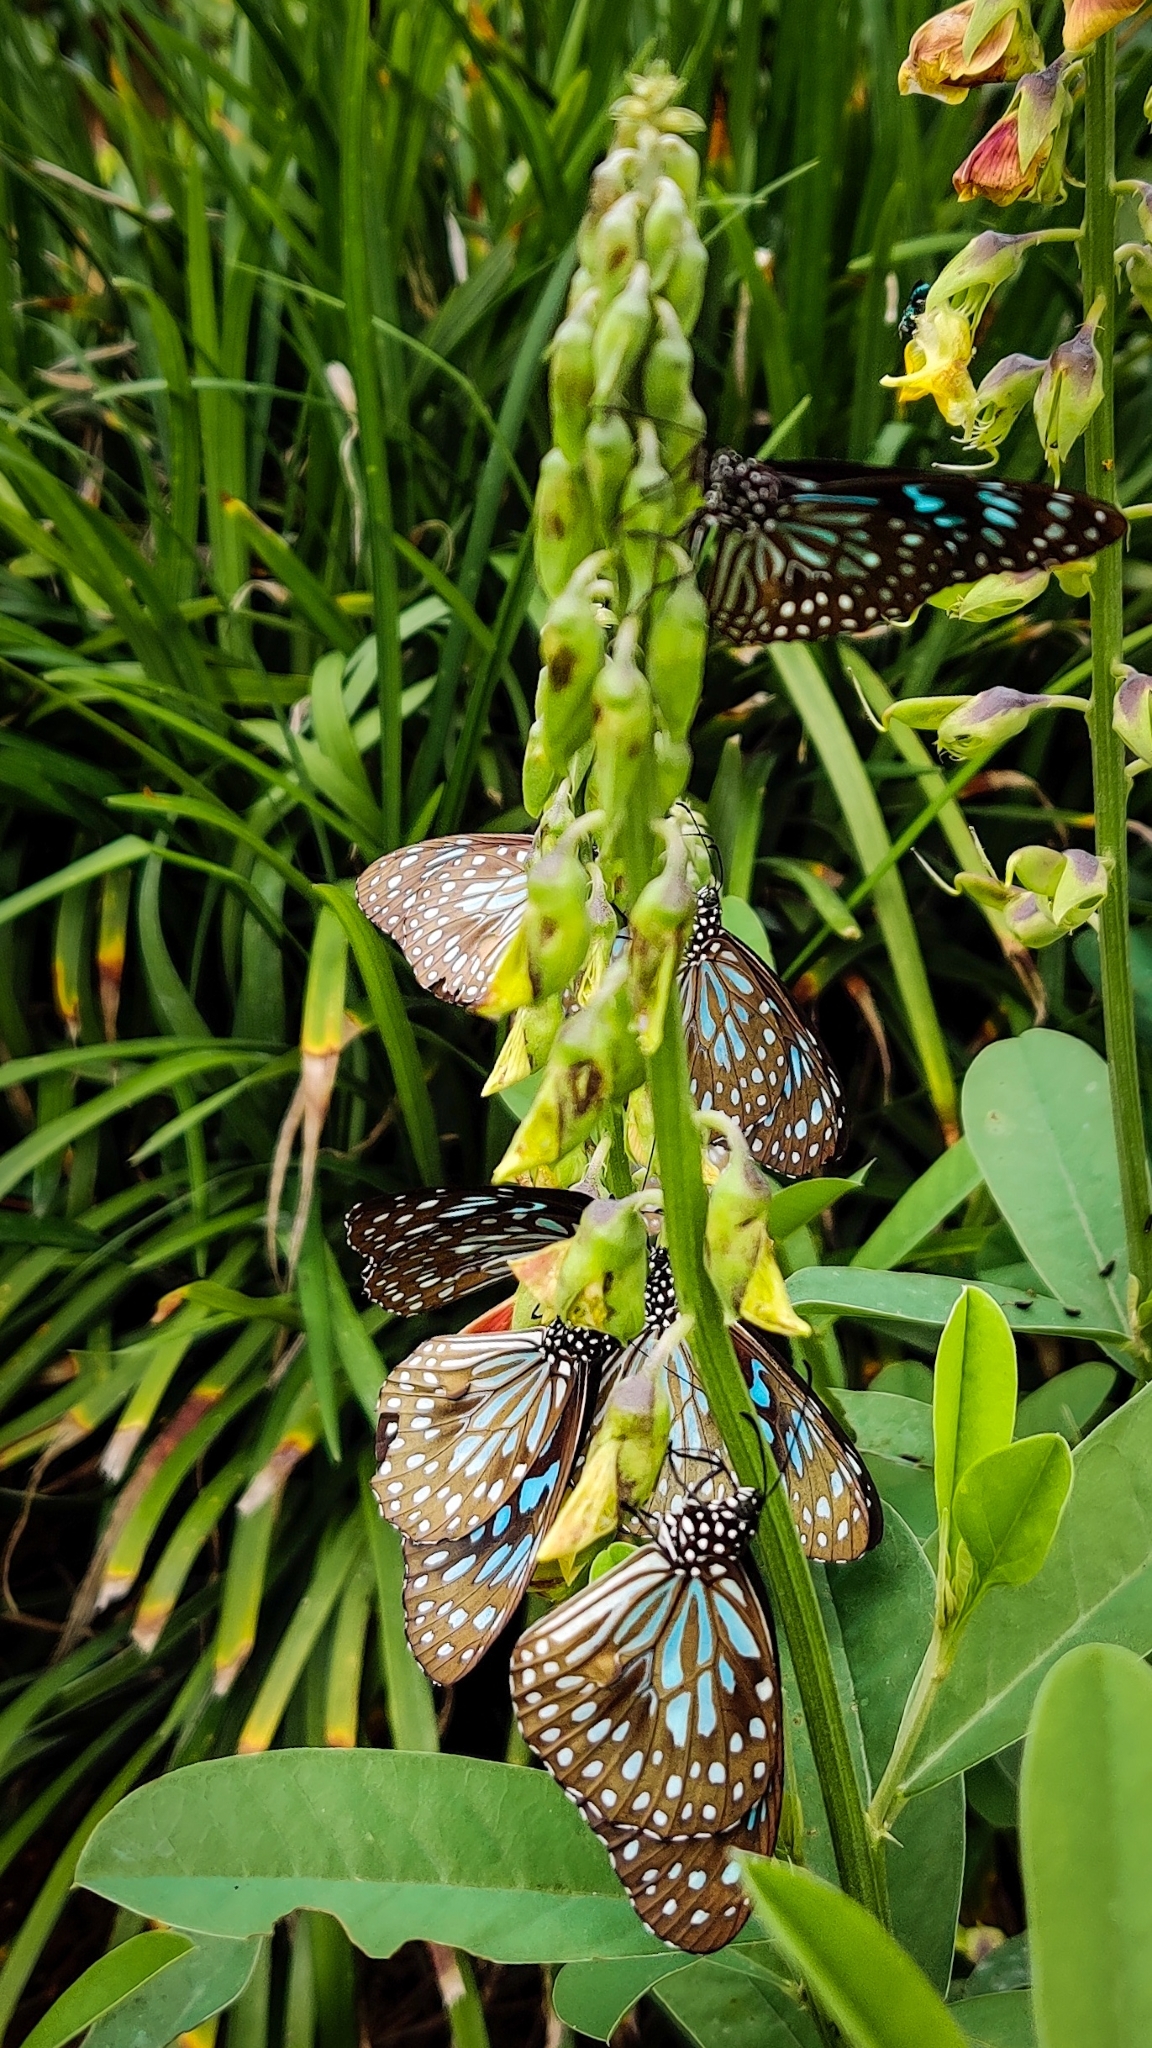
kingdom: Animalia
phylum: Arthropoda
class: Insecta
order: Lepidoptera
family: Nymphalidae
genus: Tirumala
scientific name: Tirumala septentrionis
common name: Dark blue tiger butterfly
